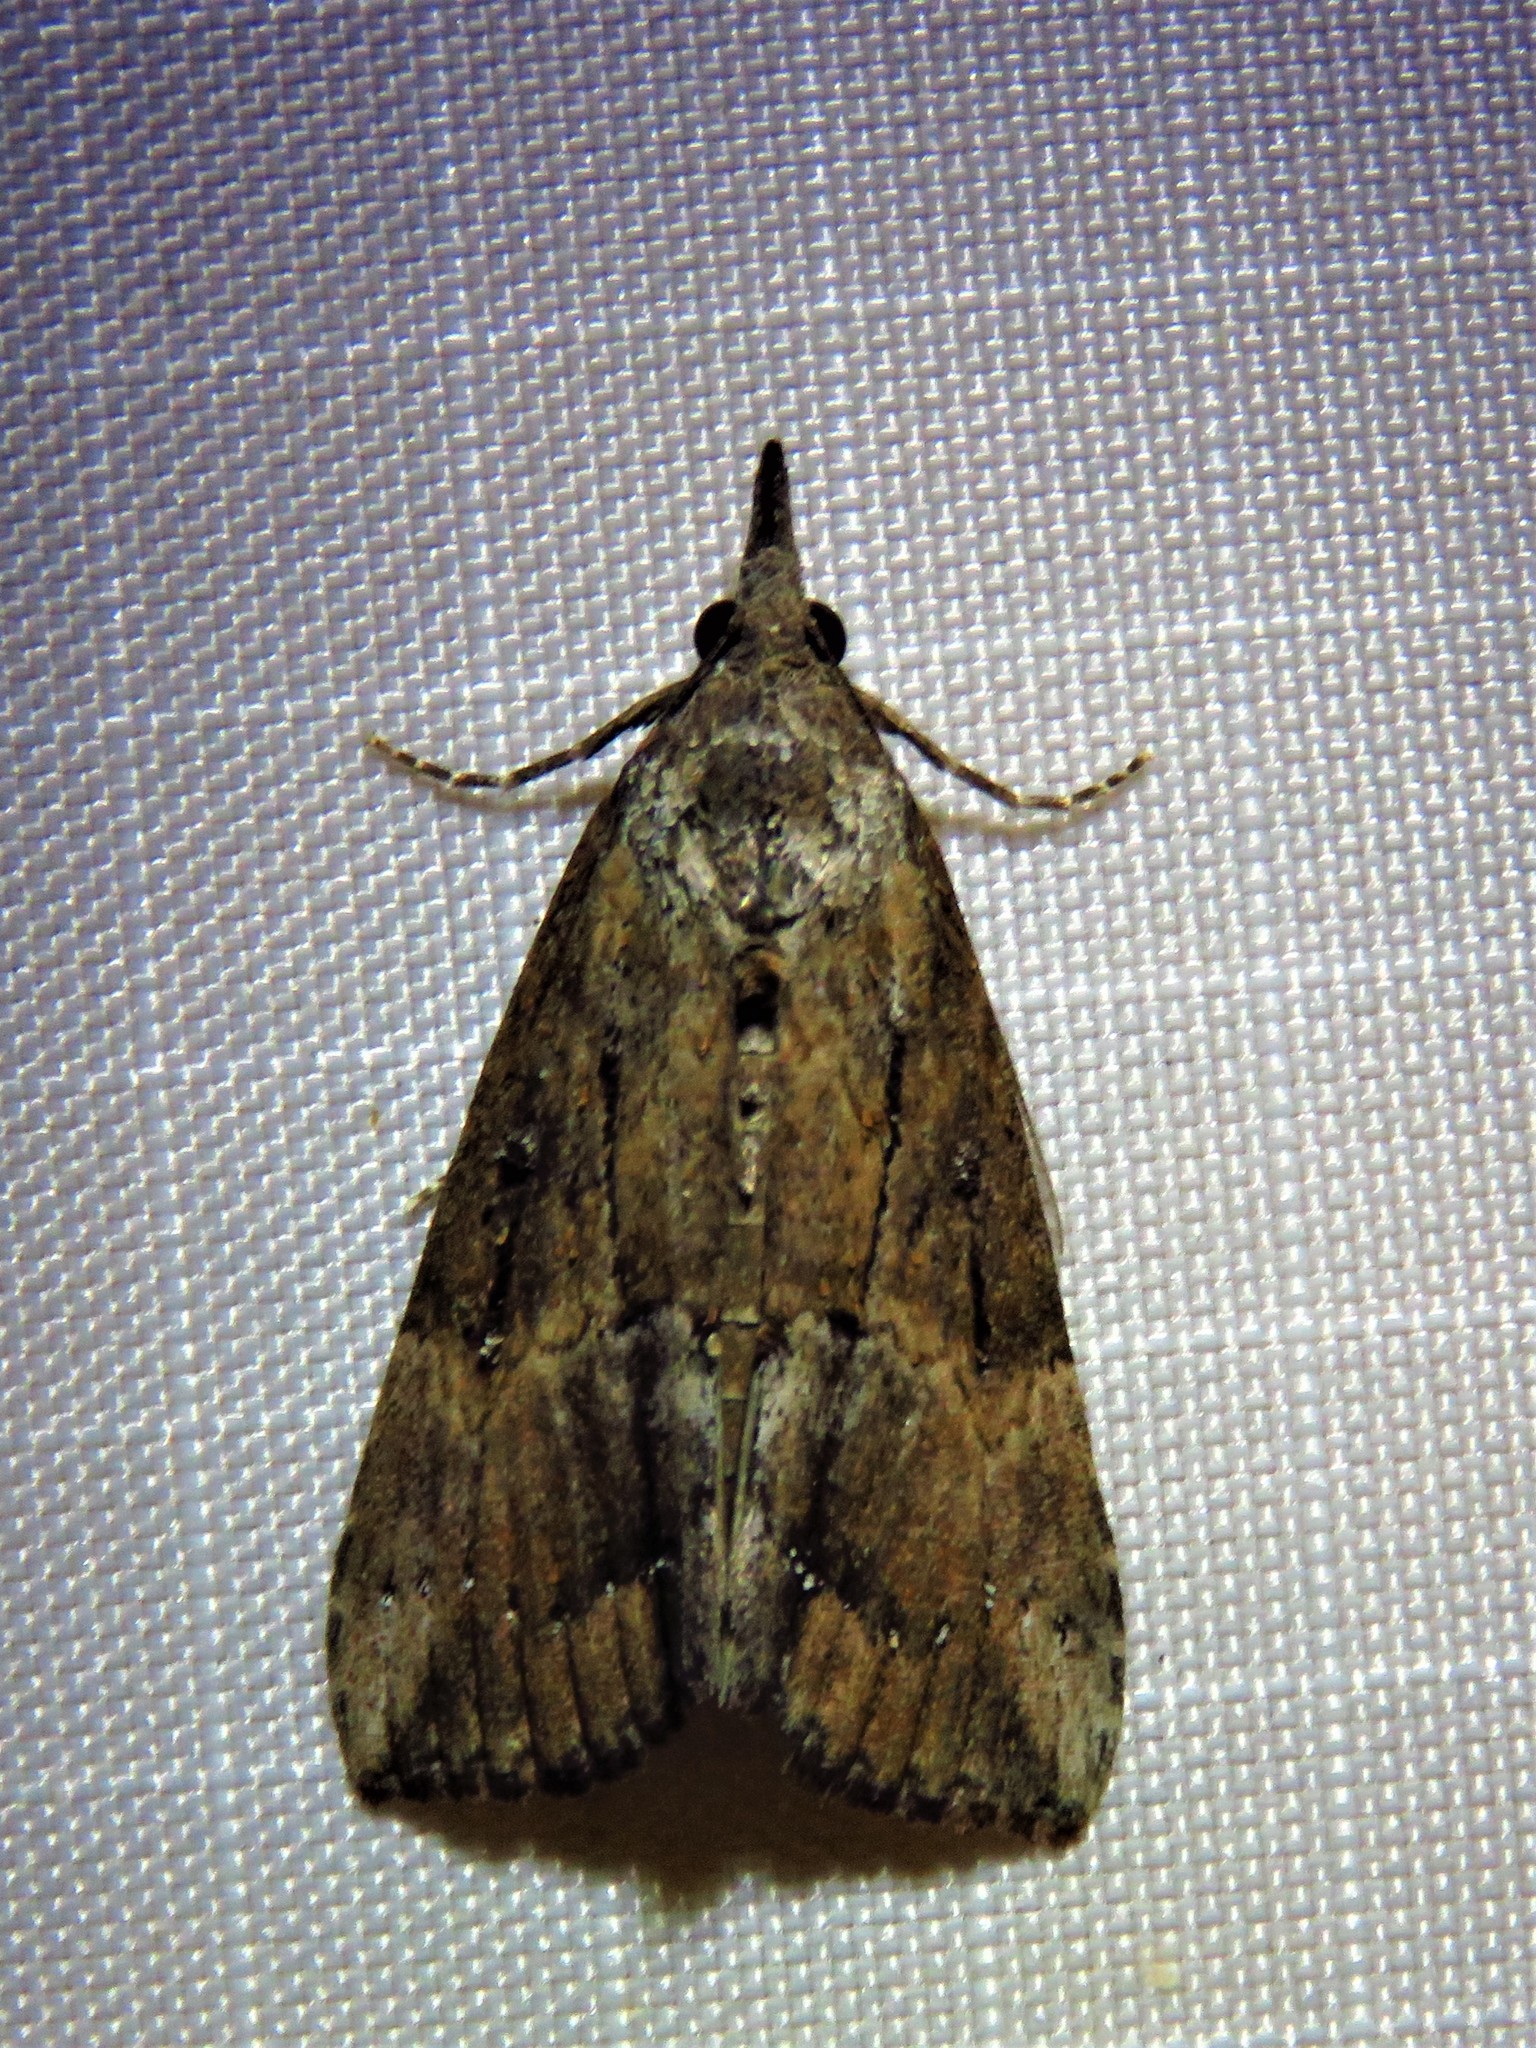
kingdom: Animalia
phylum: Arthropoda
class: Insecta
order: Lepidoptera
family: Erebidae
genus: Hypena
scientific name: Hypena scabra
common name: Green cloverworm
